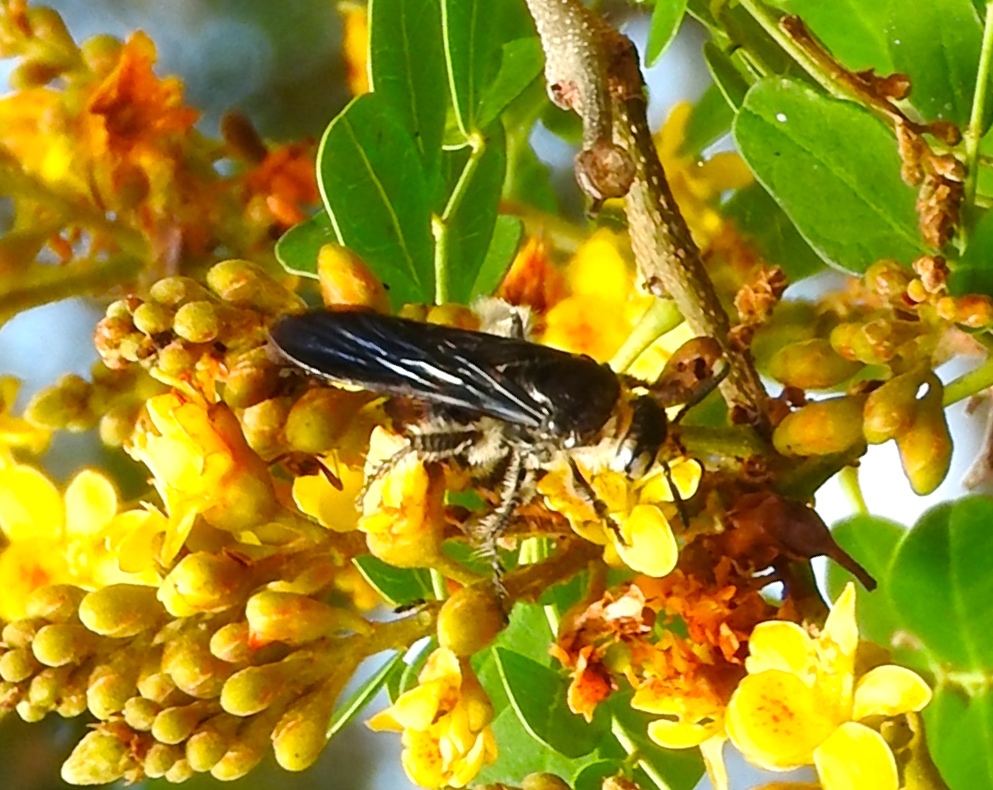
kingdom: Animalia
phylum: Arthropoda
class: Insecta
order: Hymenoptera
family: Scoliidae
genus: Dielis
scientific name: Dielis tolteca
